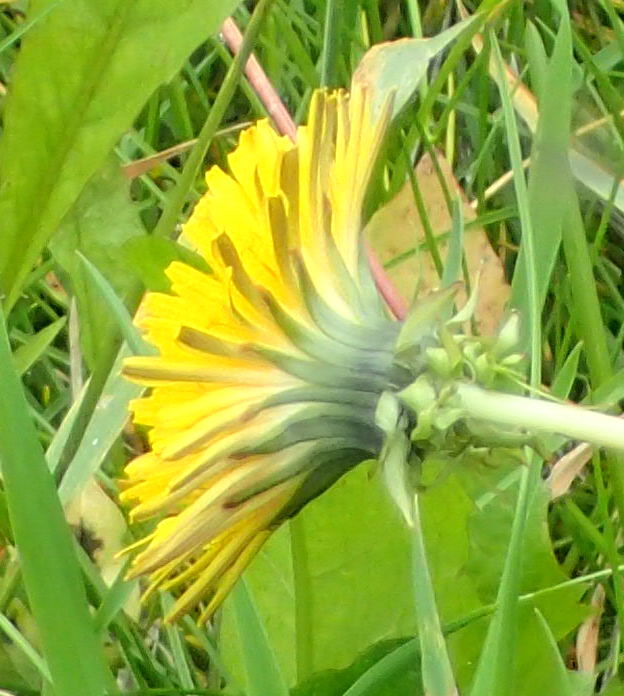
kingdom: Plantae
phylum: Tracheophyta
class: Magnoliopsida
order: Asterales
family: Asteraceae
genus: Taraxacum
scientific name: Taraxacum officinale
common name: Common dandelion
